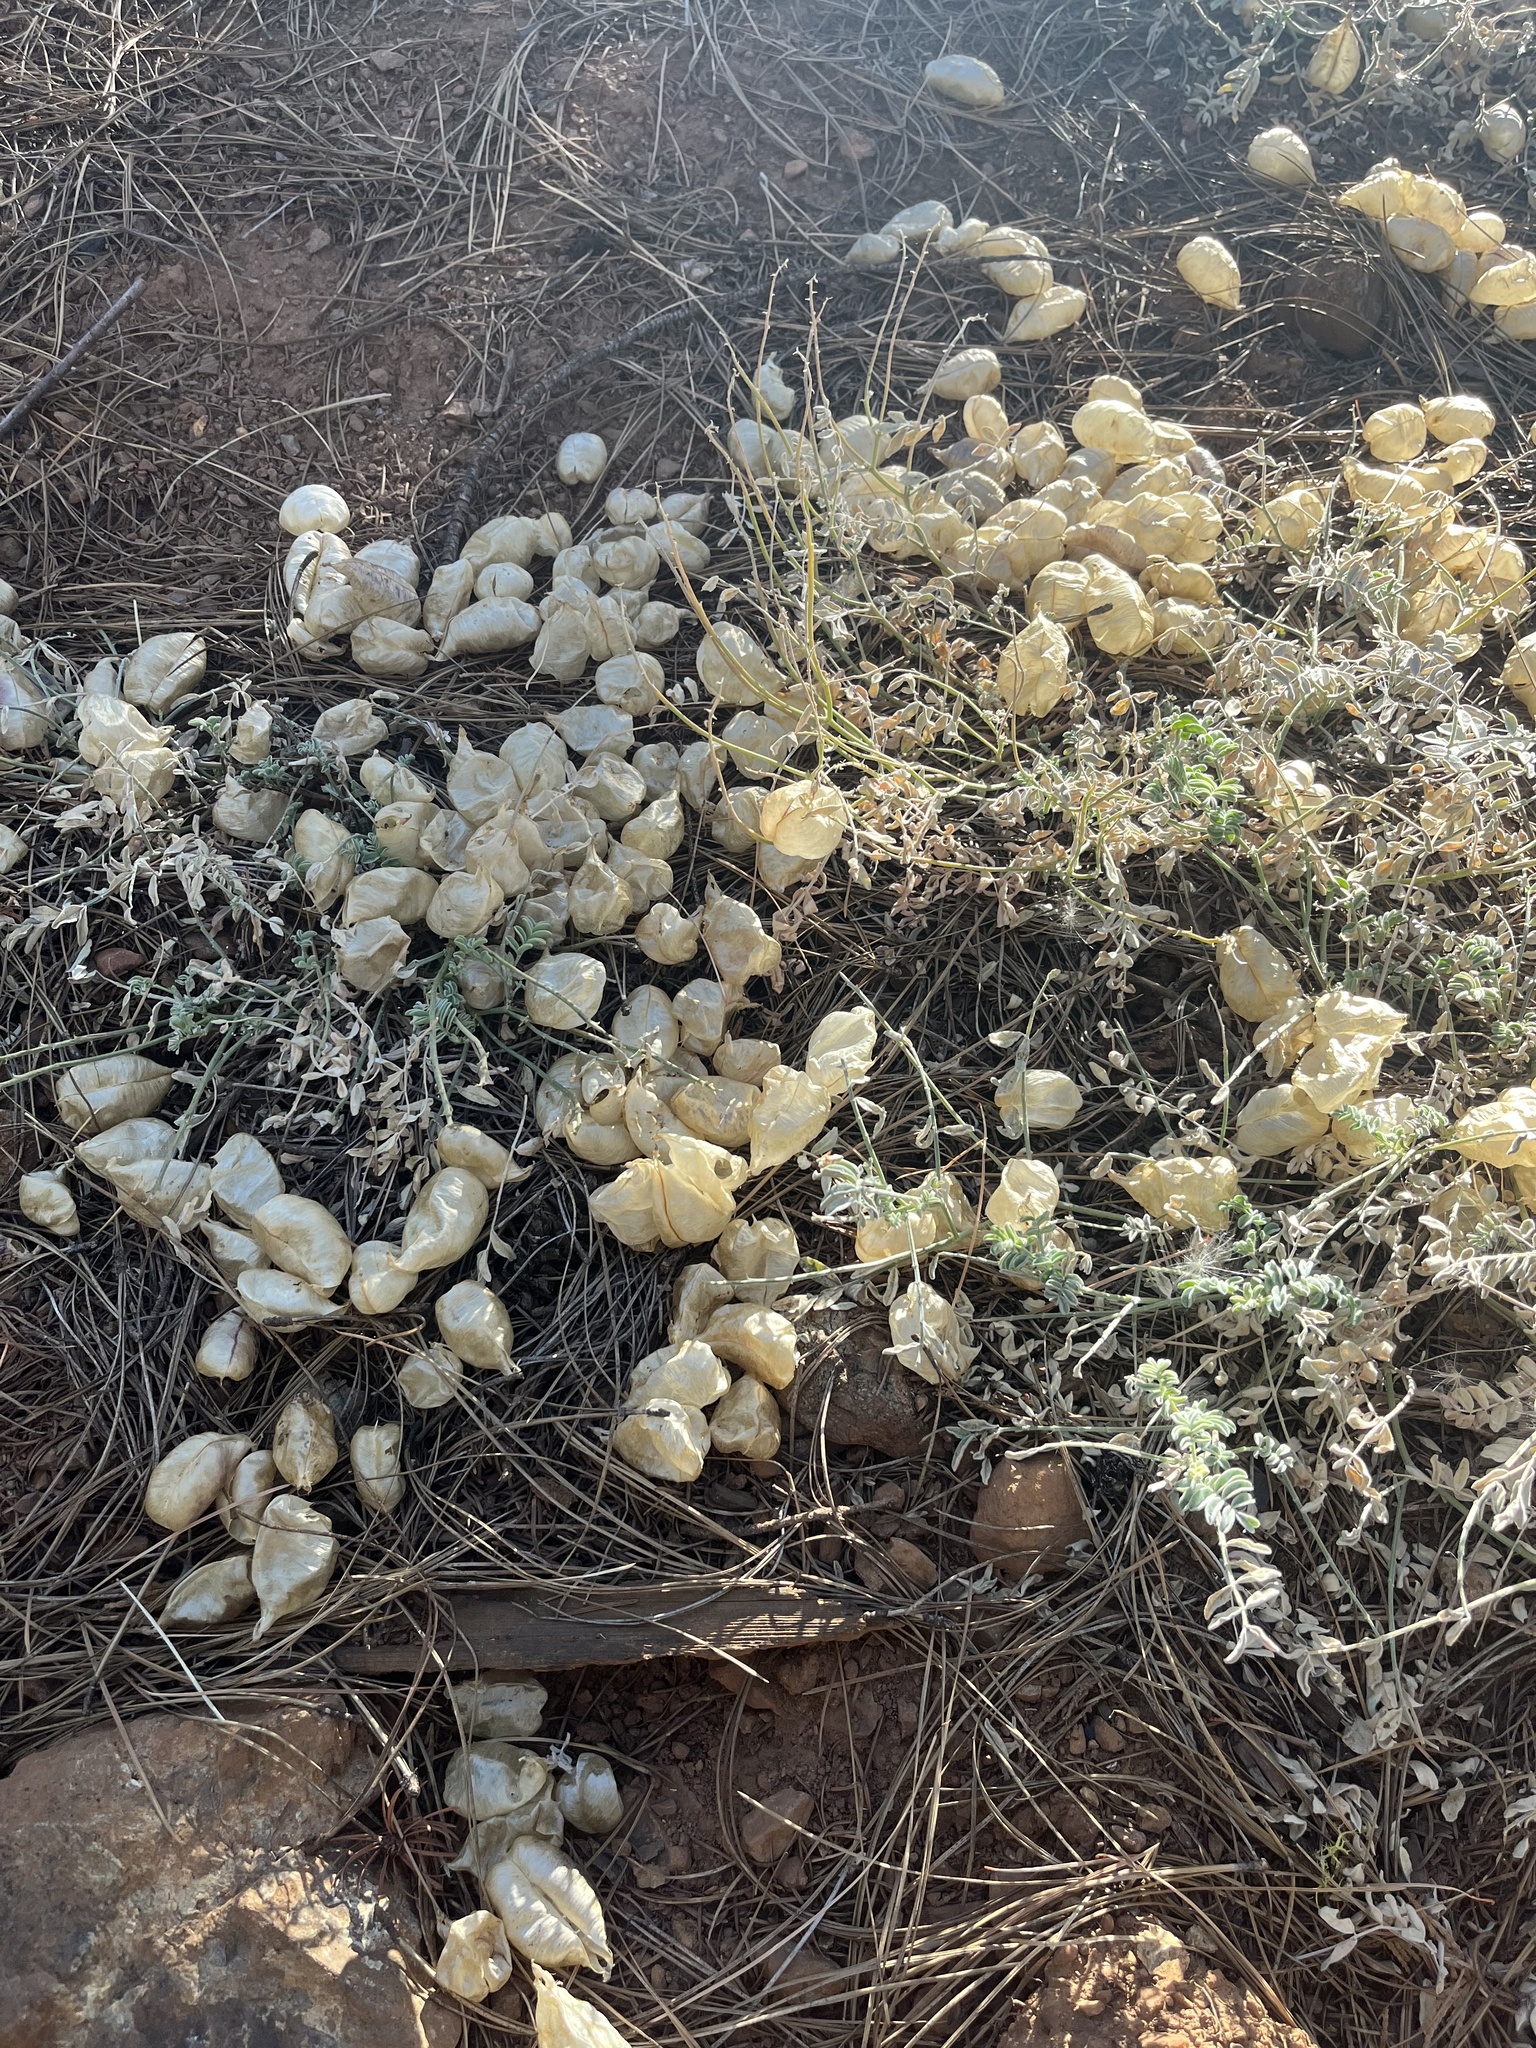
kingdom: Plantae
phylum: Tracheophyta
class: Magnoliopsida
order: Fabales
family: Fabaceae
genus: Astragalus
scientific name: Astragalus whitneyi
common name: Balloonpod milkvetch
